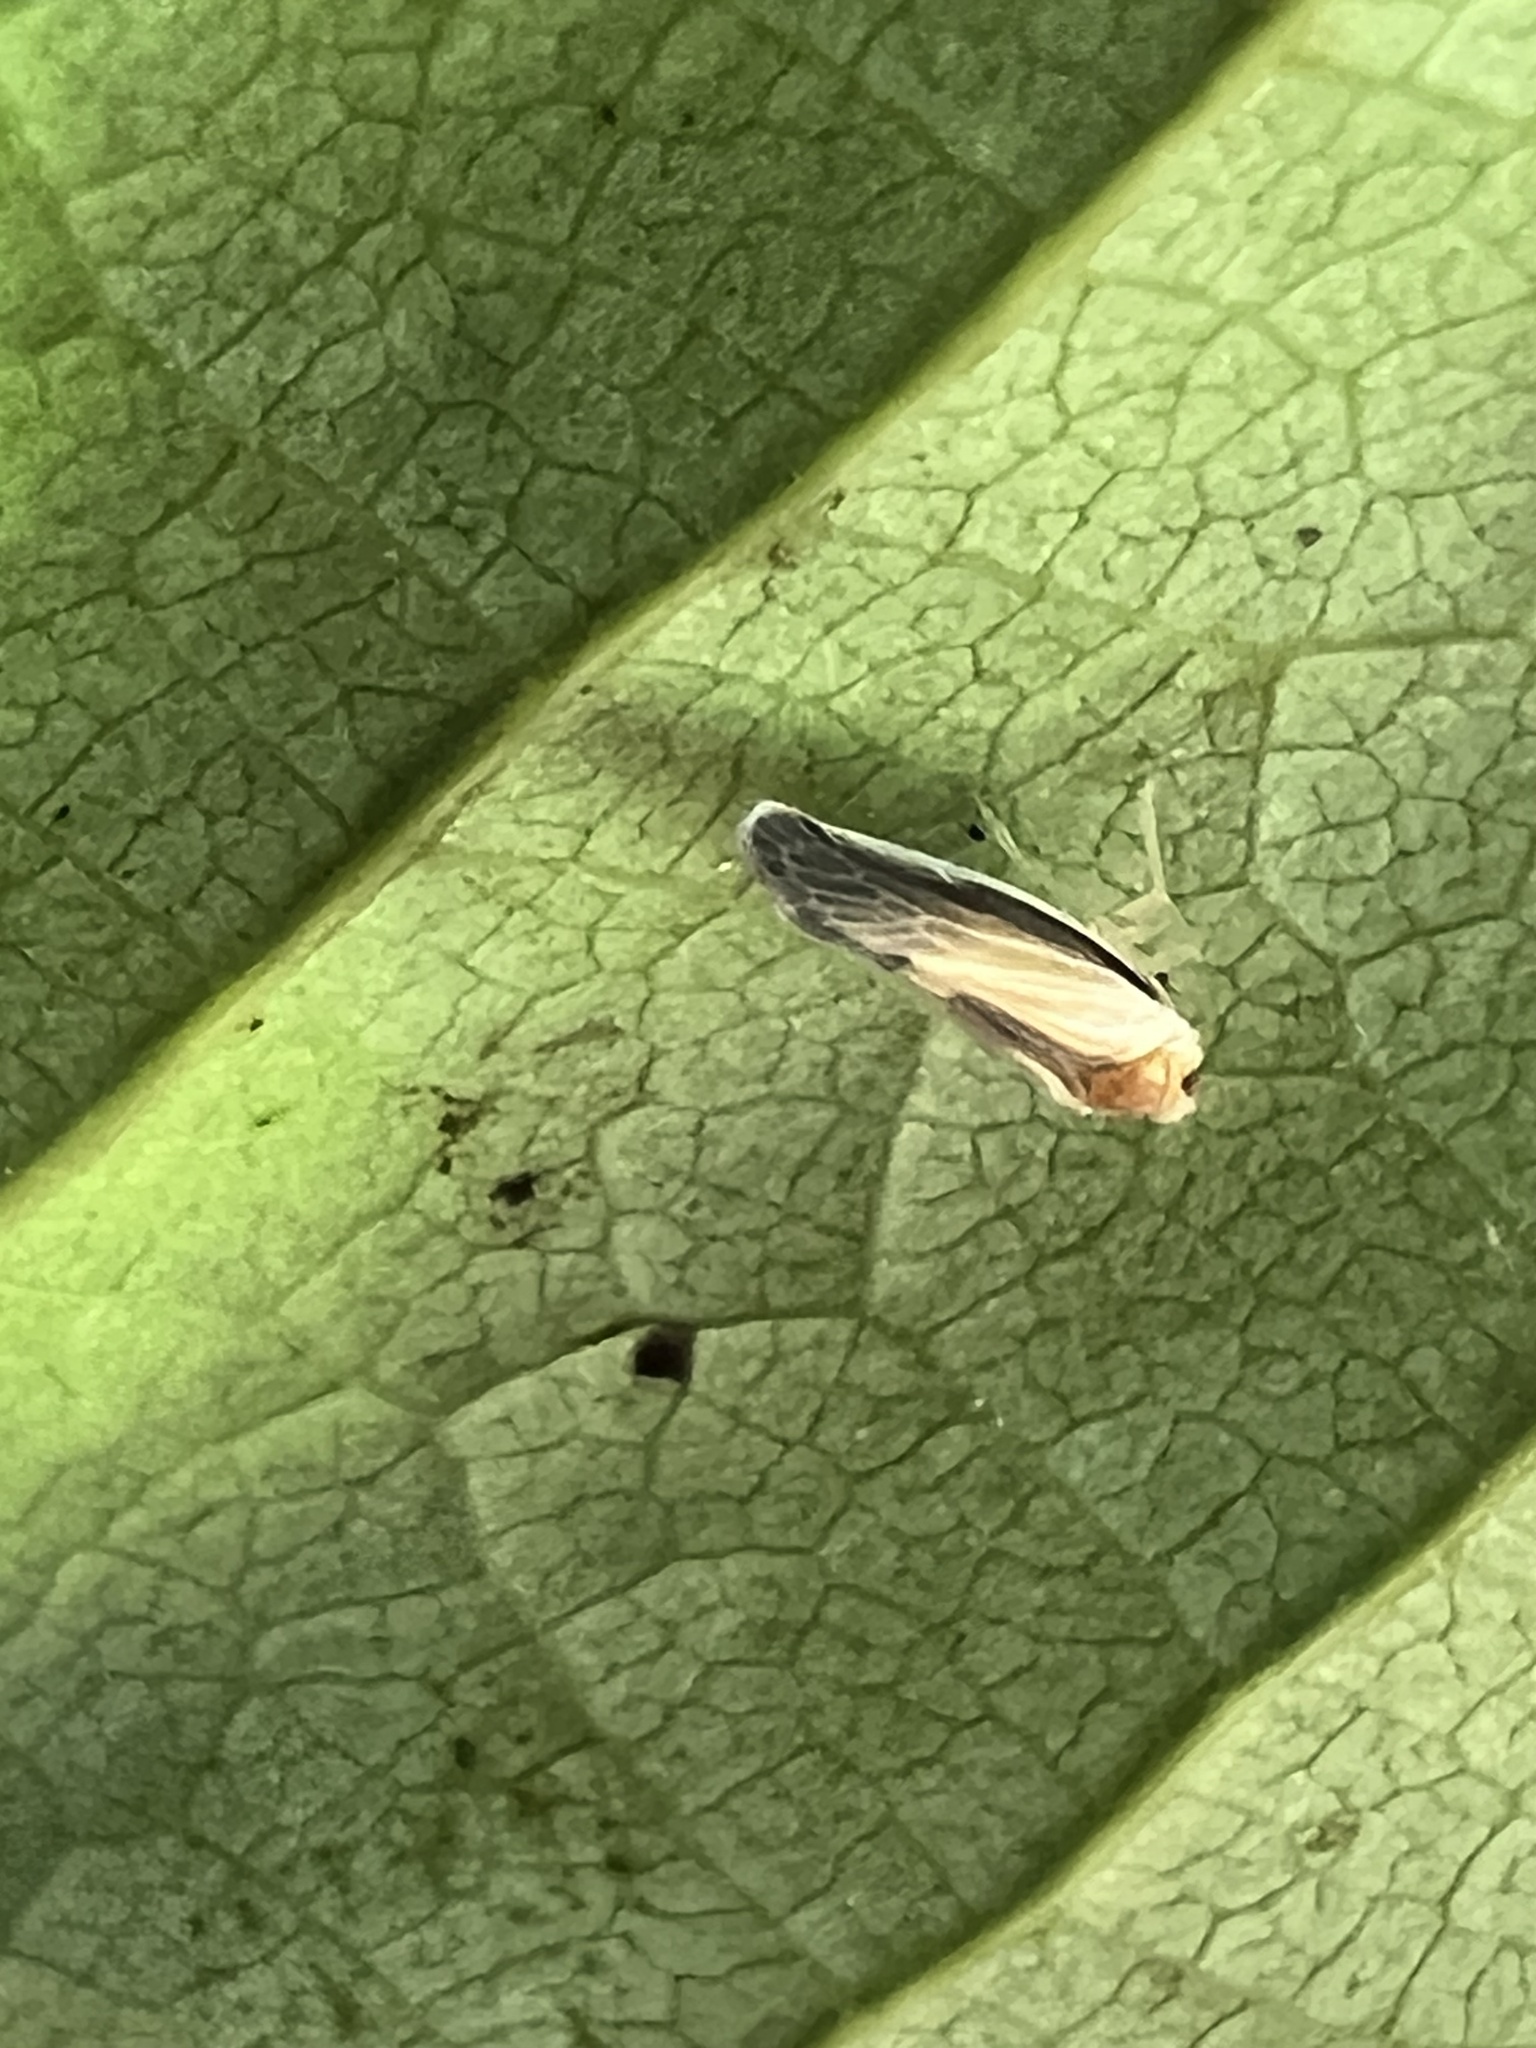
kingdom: Animalia
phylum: Arthropoda
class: Insecta
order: Hemiptera
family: Derbidae
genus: Omolicna
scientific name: Omolicna uhleri
